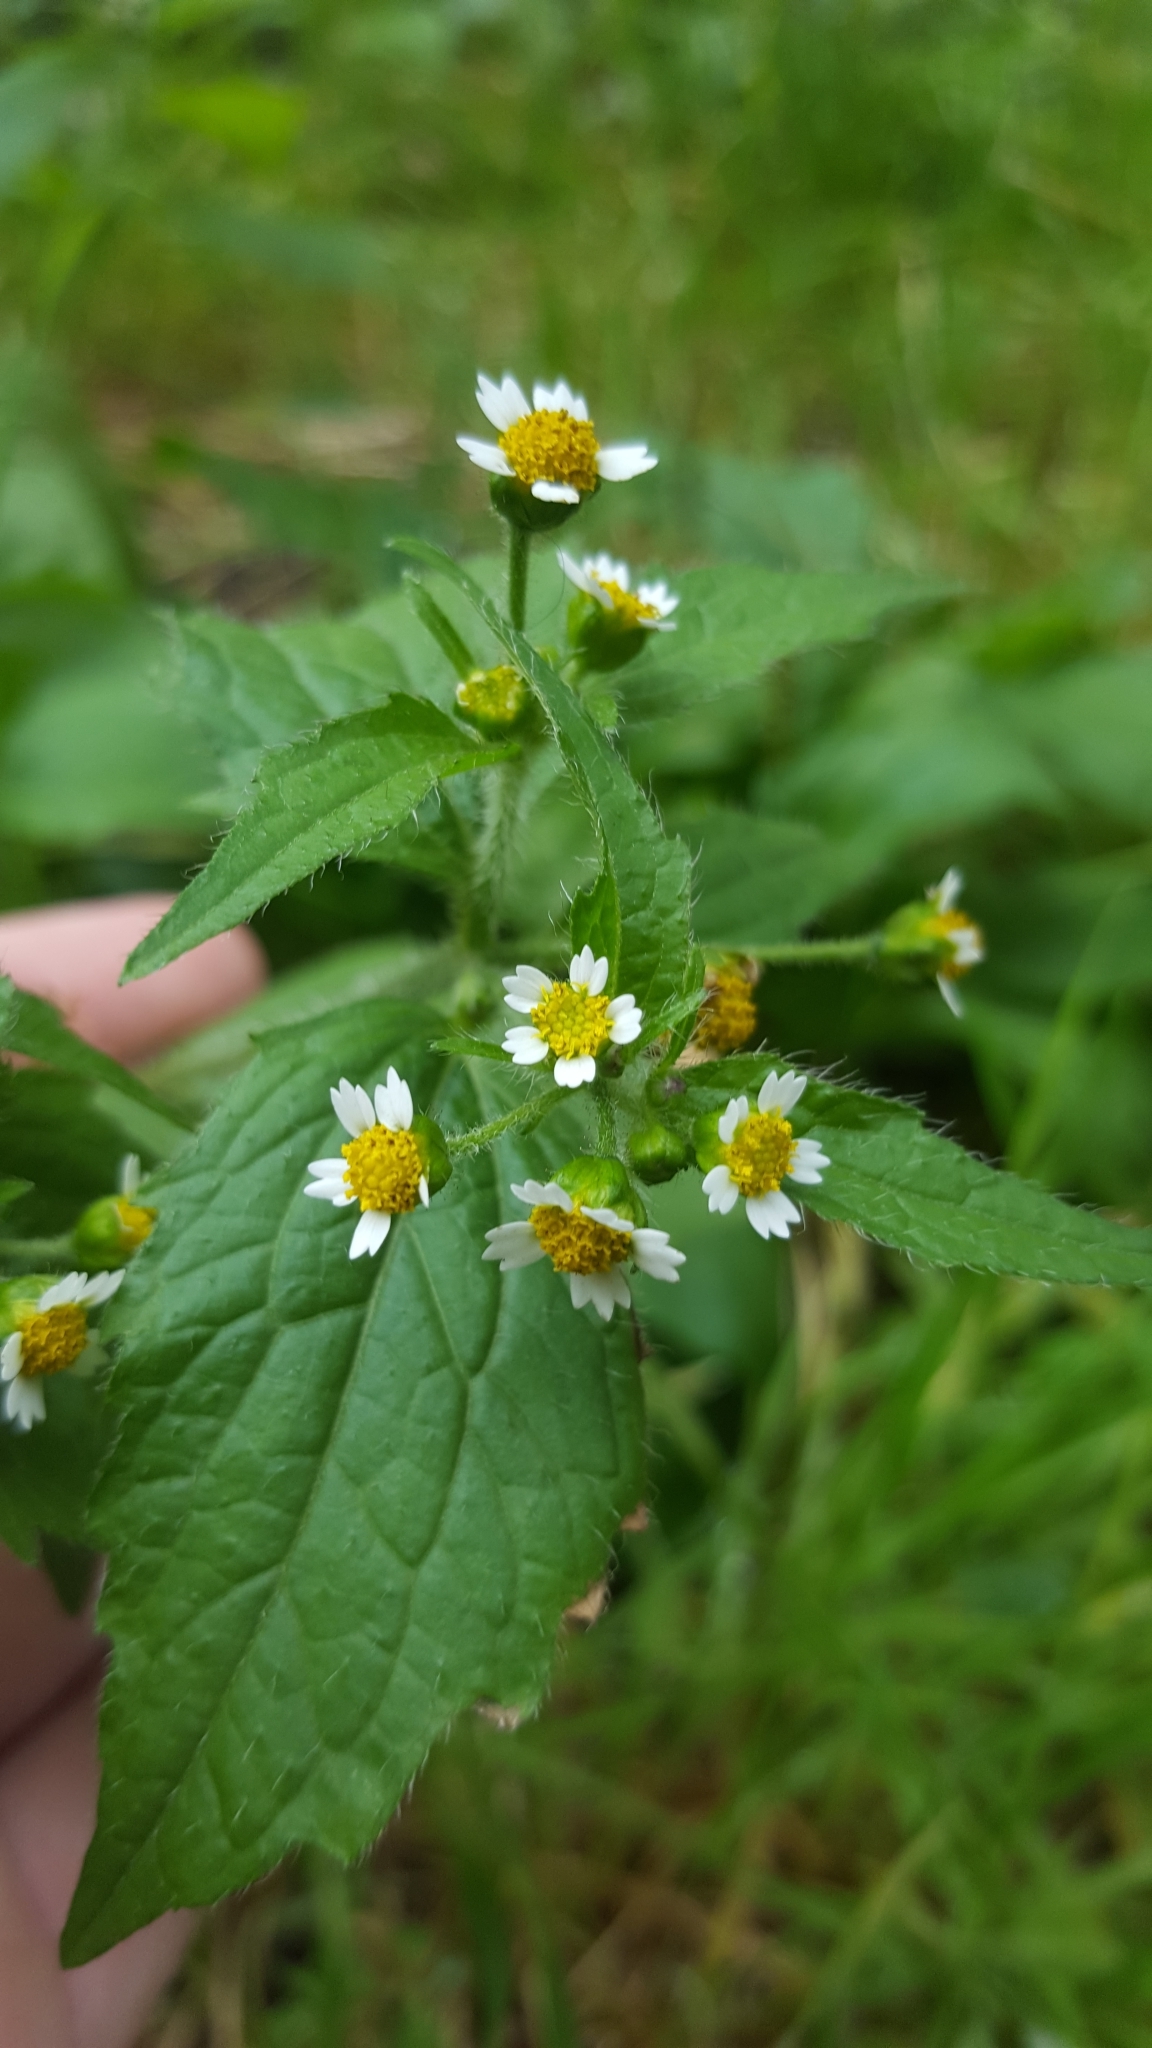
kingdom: Plantae
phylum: Tracheophyta
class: Magnoliopsida
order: Asterales
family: Asteraceae
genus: Galinsoga
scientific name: Galinsoga quadriradiata
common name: Shaggy soldier
